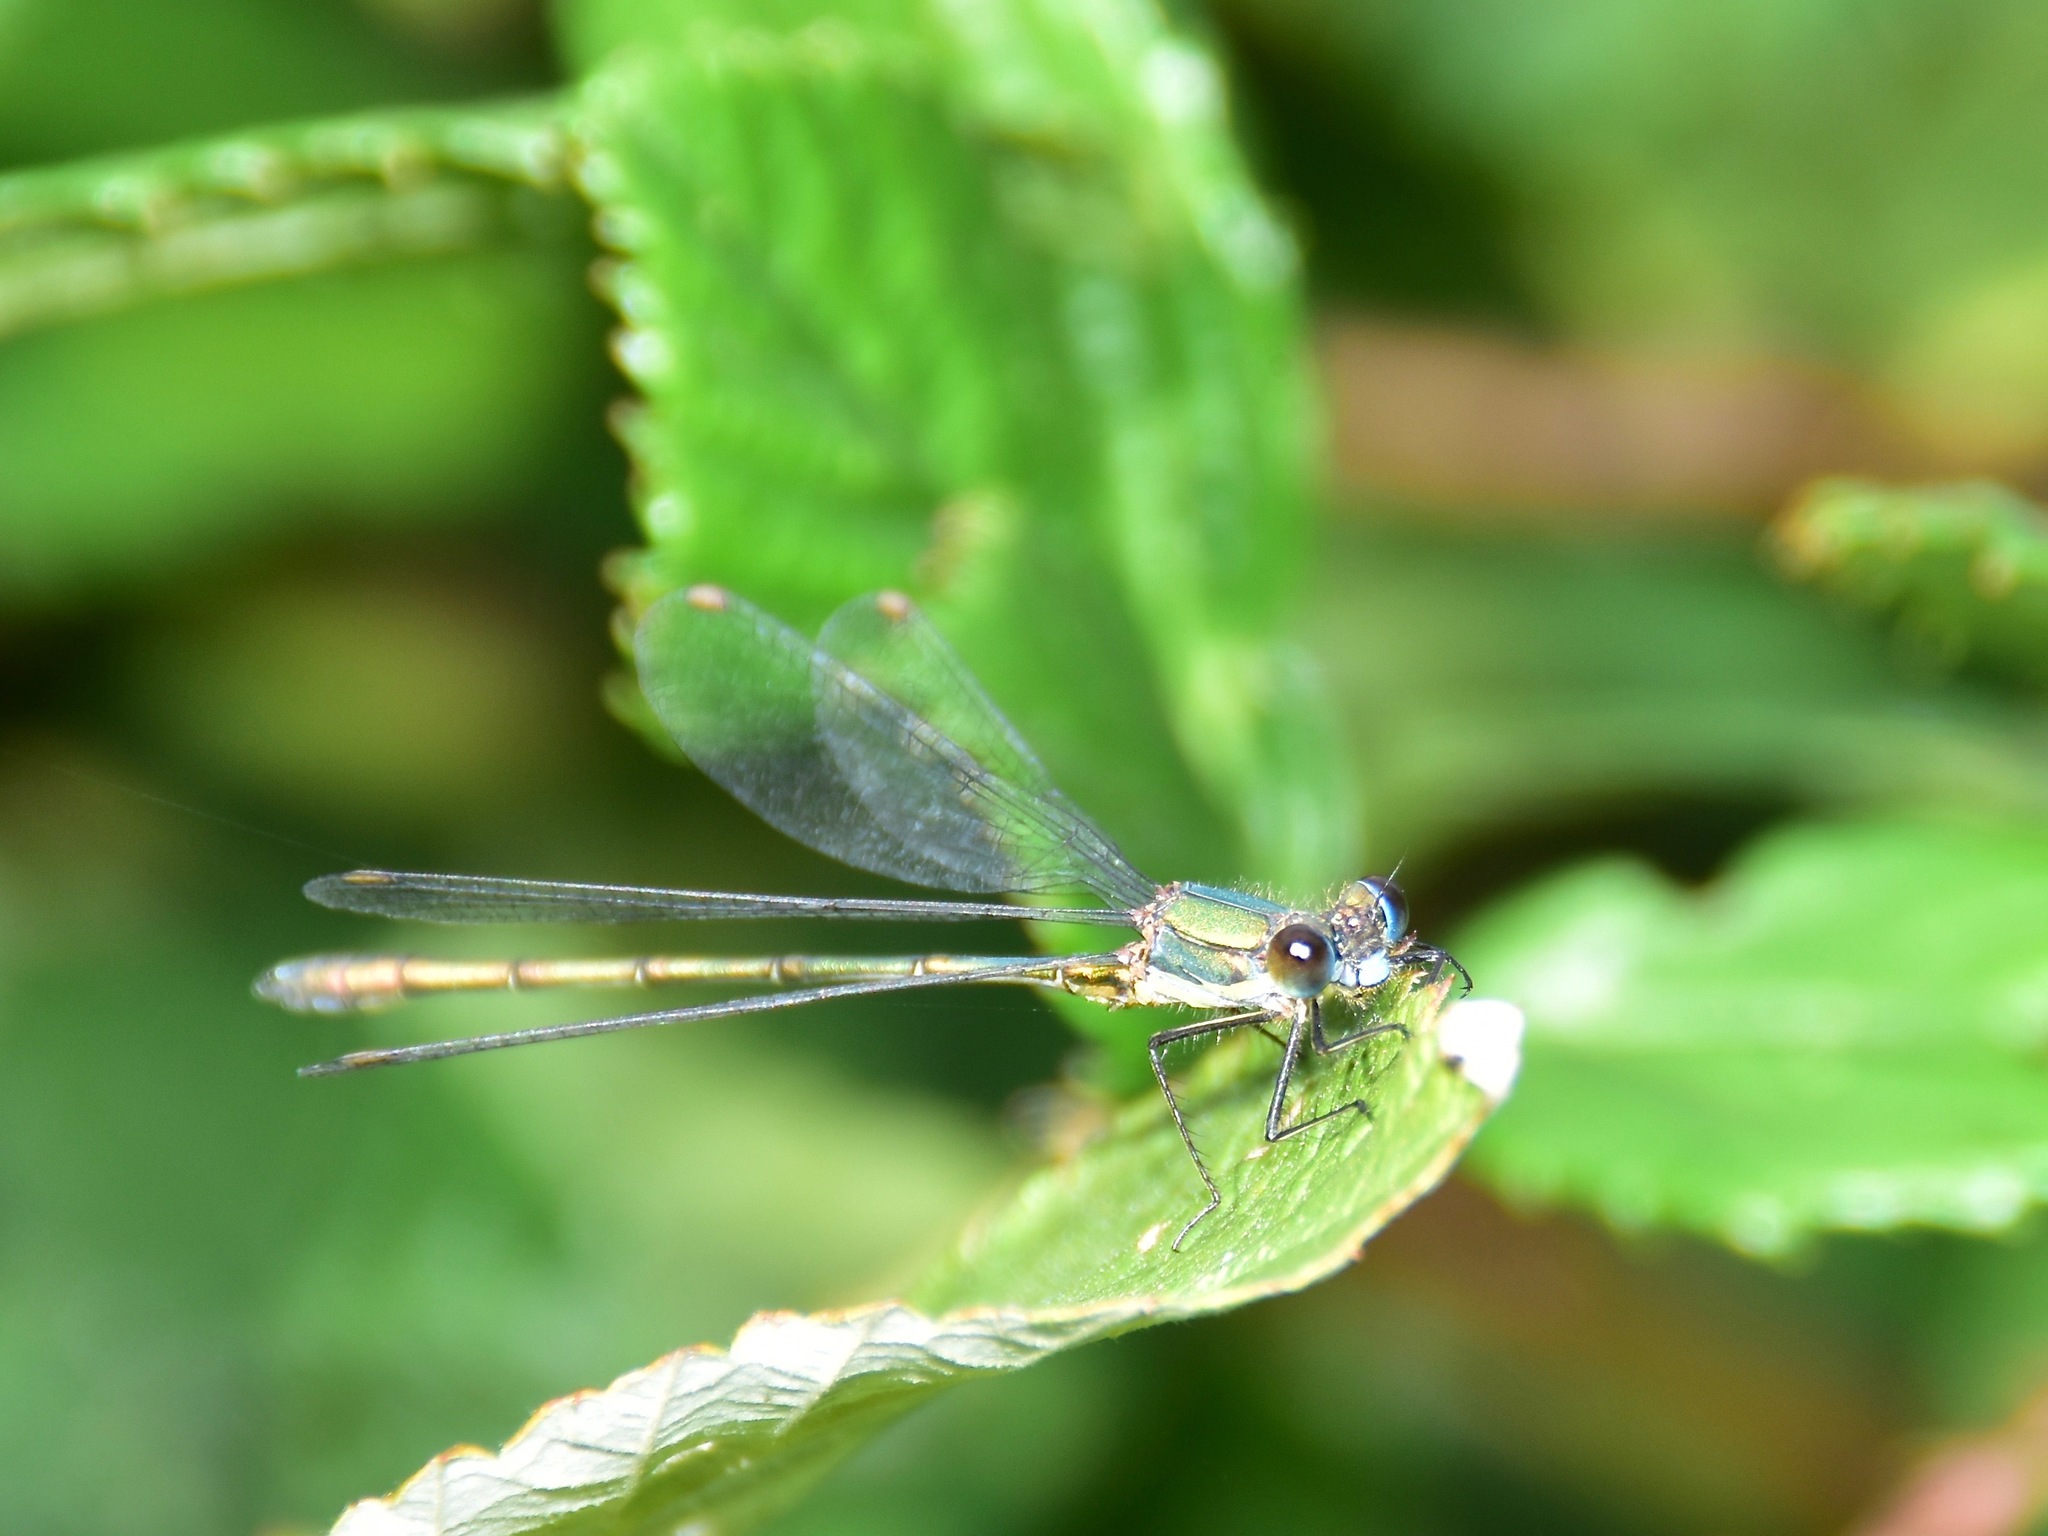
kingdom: Animalia
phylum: Arthropoda
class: Insecta
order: Odonata
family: Lestidae
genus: Chalcolestes
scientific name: Chalcolestes viridis
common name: Green emerald damselfly
